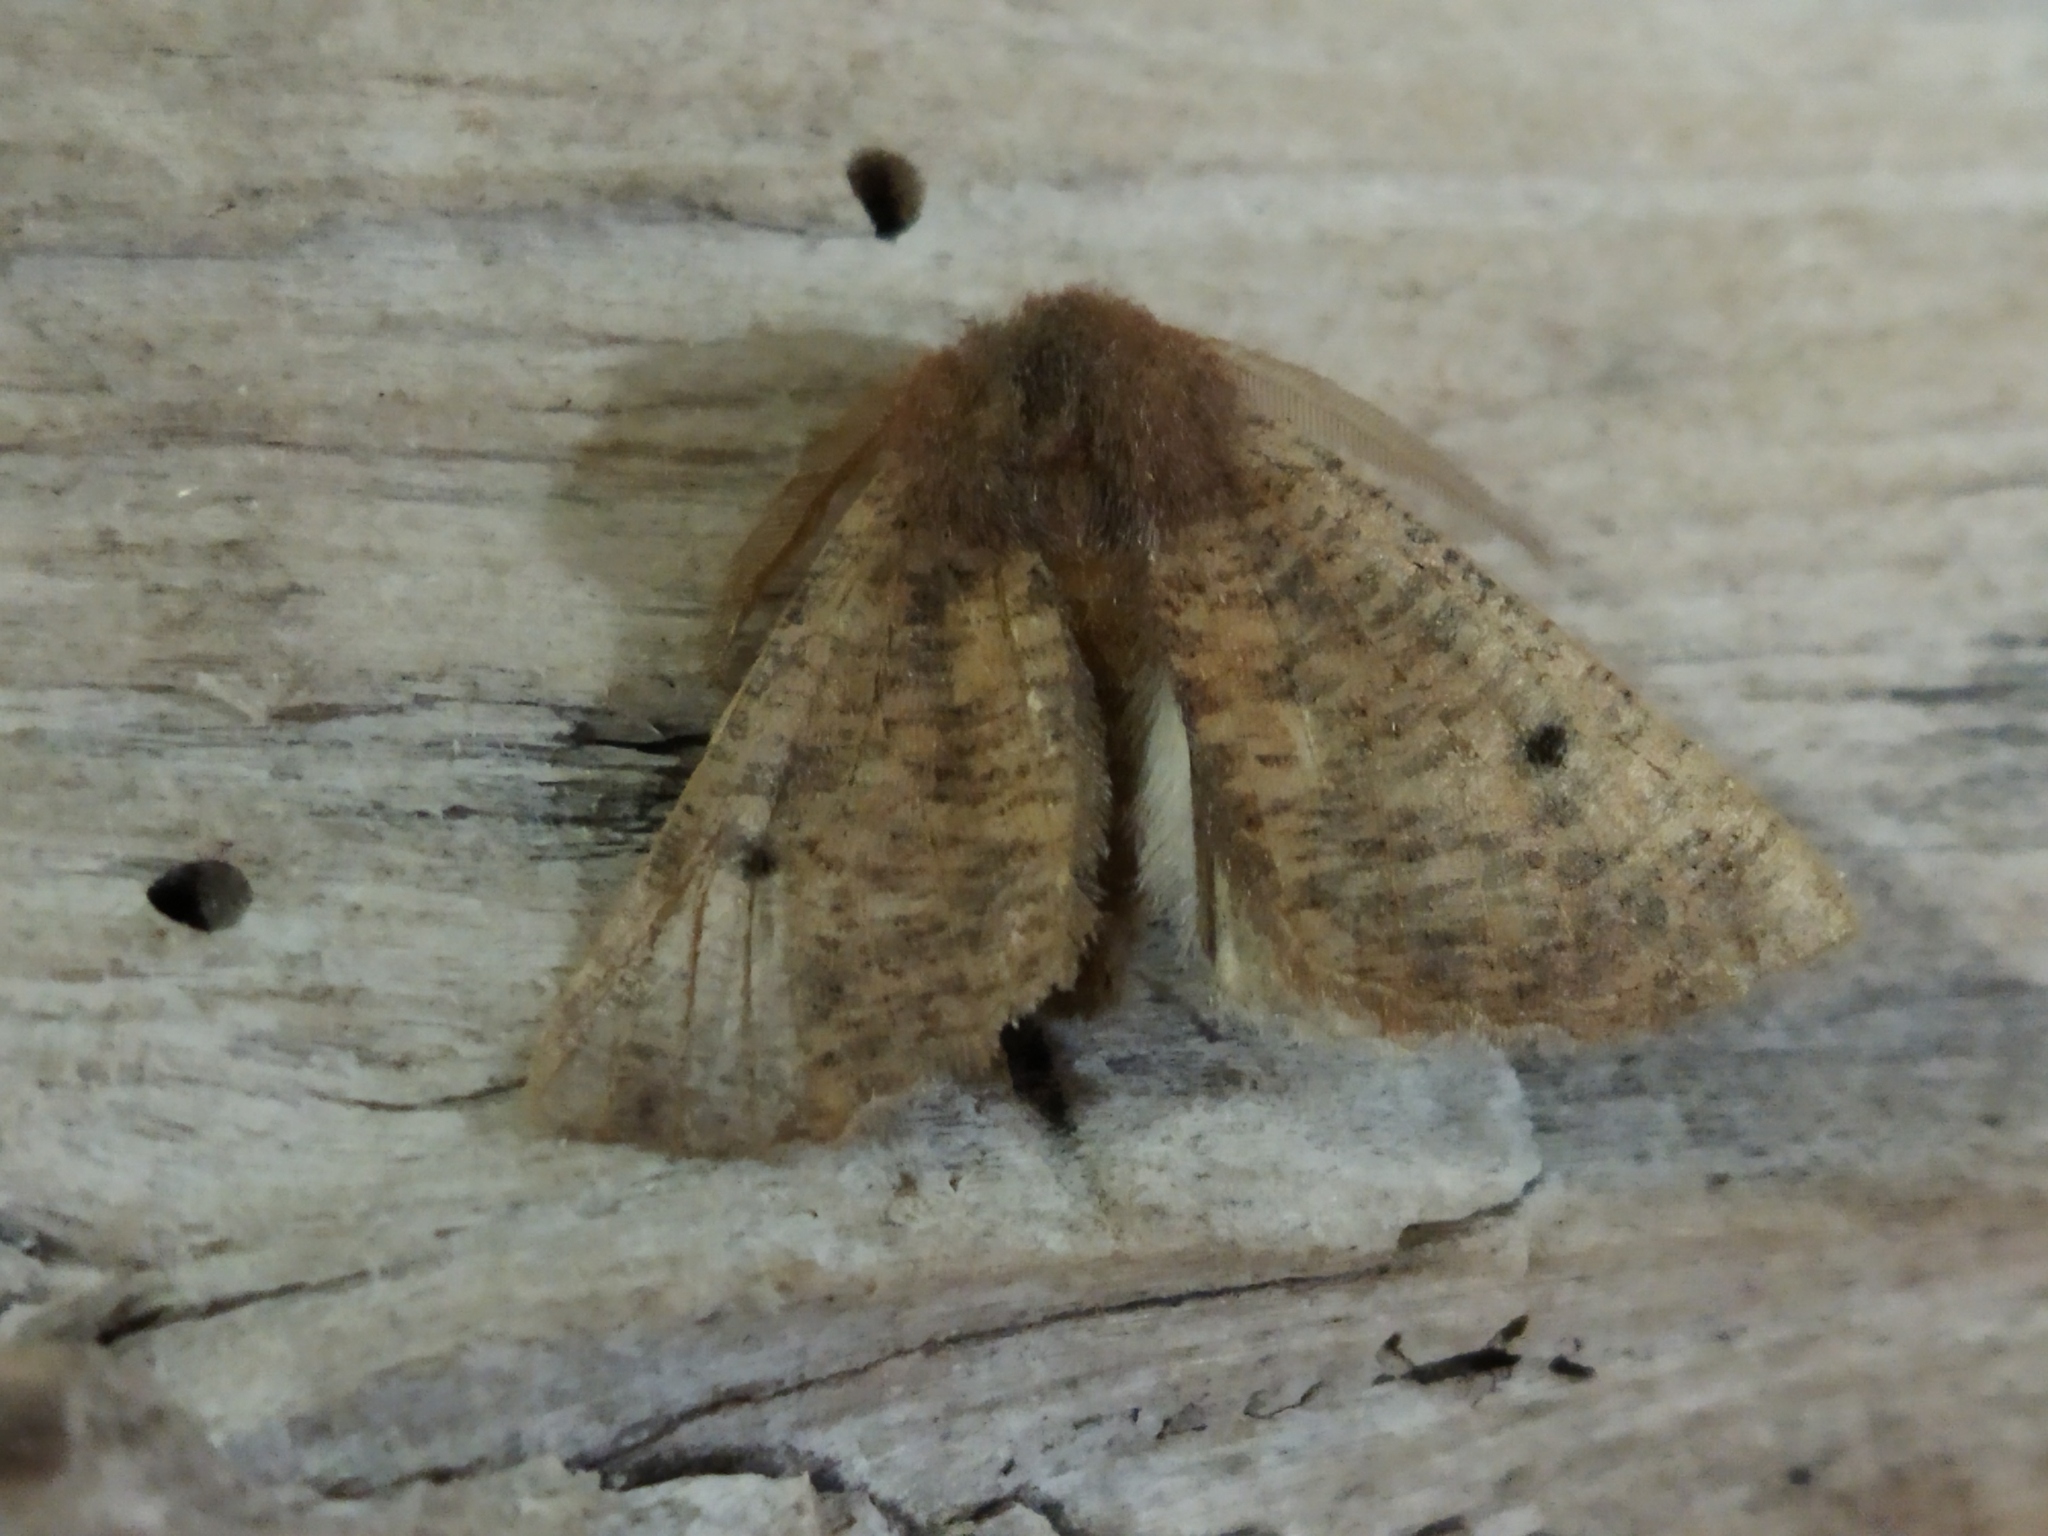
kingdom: Animalia
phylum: Arthropoda
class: Insecta
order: Lepidoptera
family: Geometridae
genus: Dasycorsa
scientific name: Dasycorsa modesta
